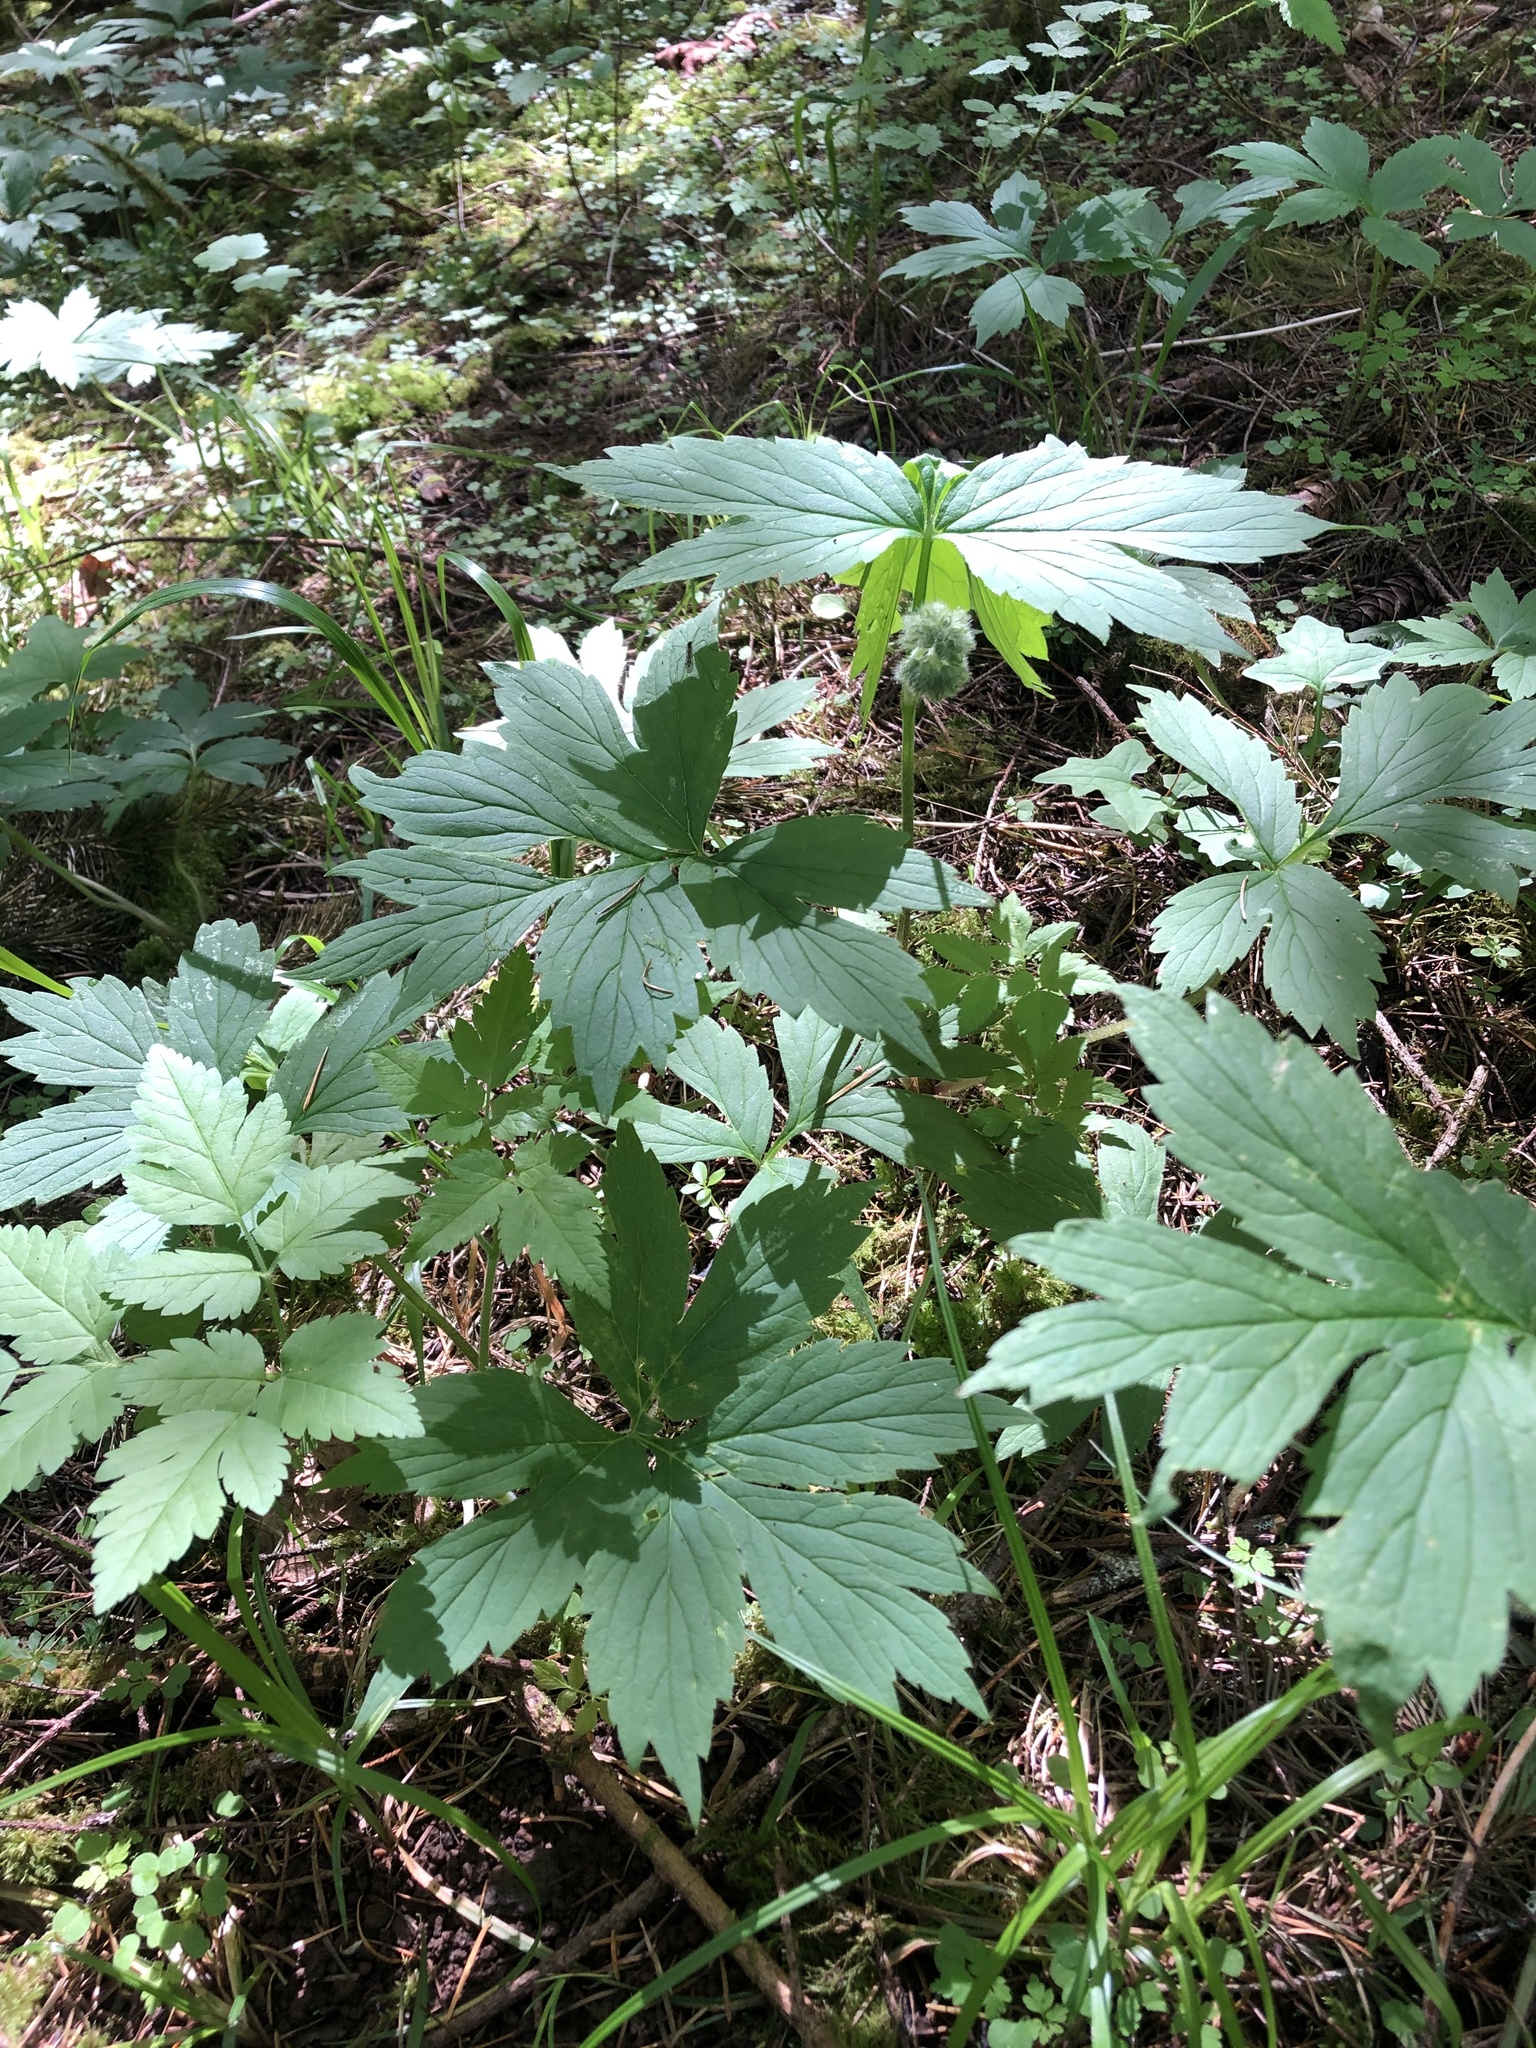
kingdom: Plantae
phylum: Tracheophyta
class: Magnoliopsida
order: Boraginales
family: Hydrophyllaceae
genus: Hydrophyllum
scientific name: Hydrophyllum tenuipes
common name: Pacific waterleaf
